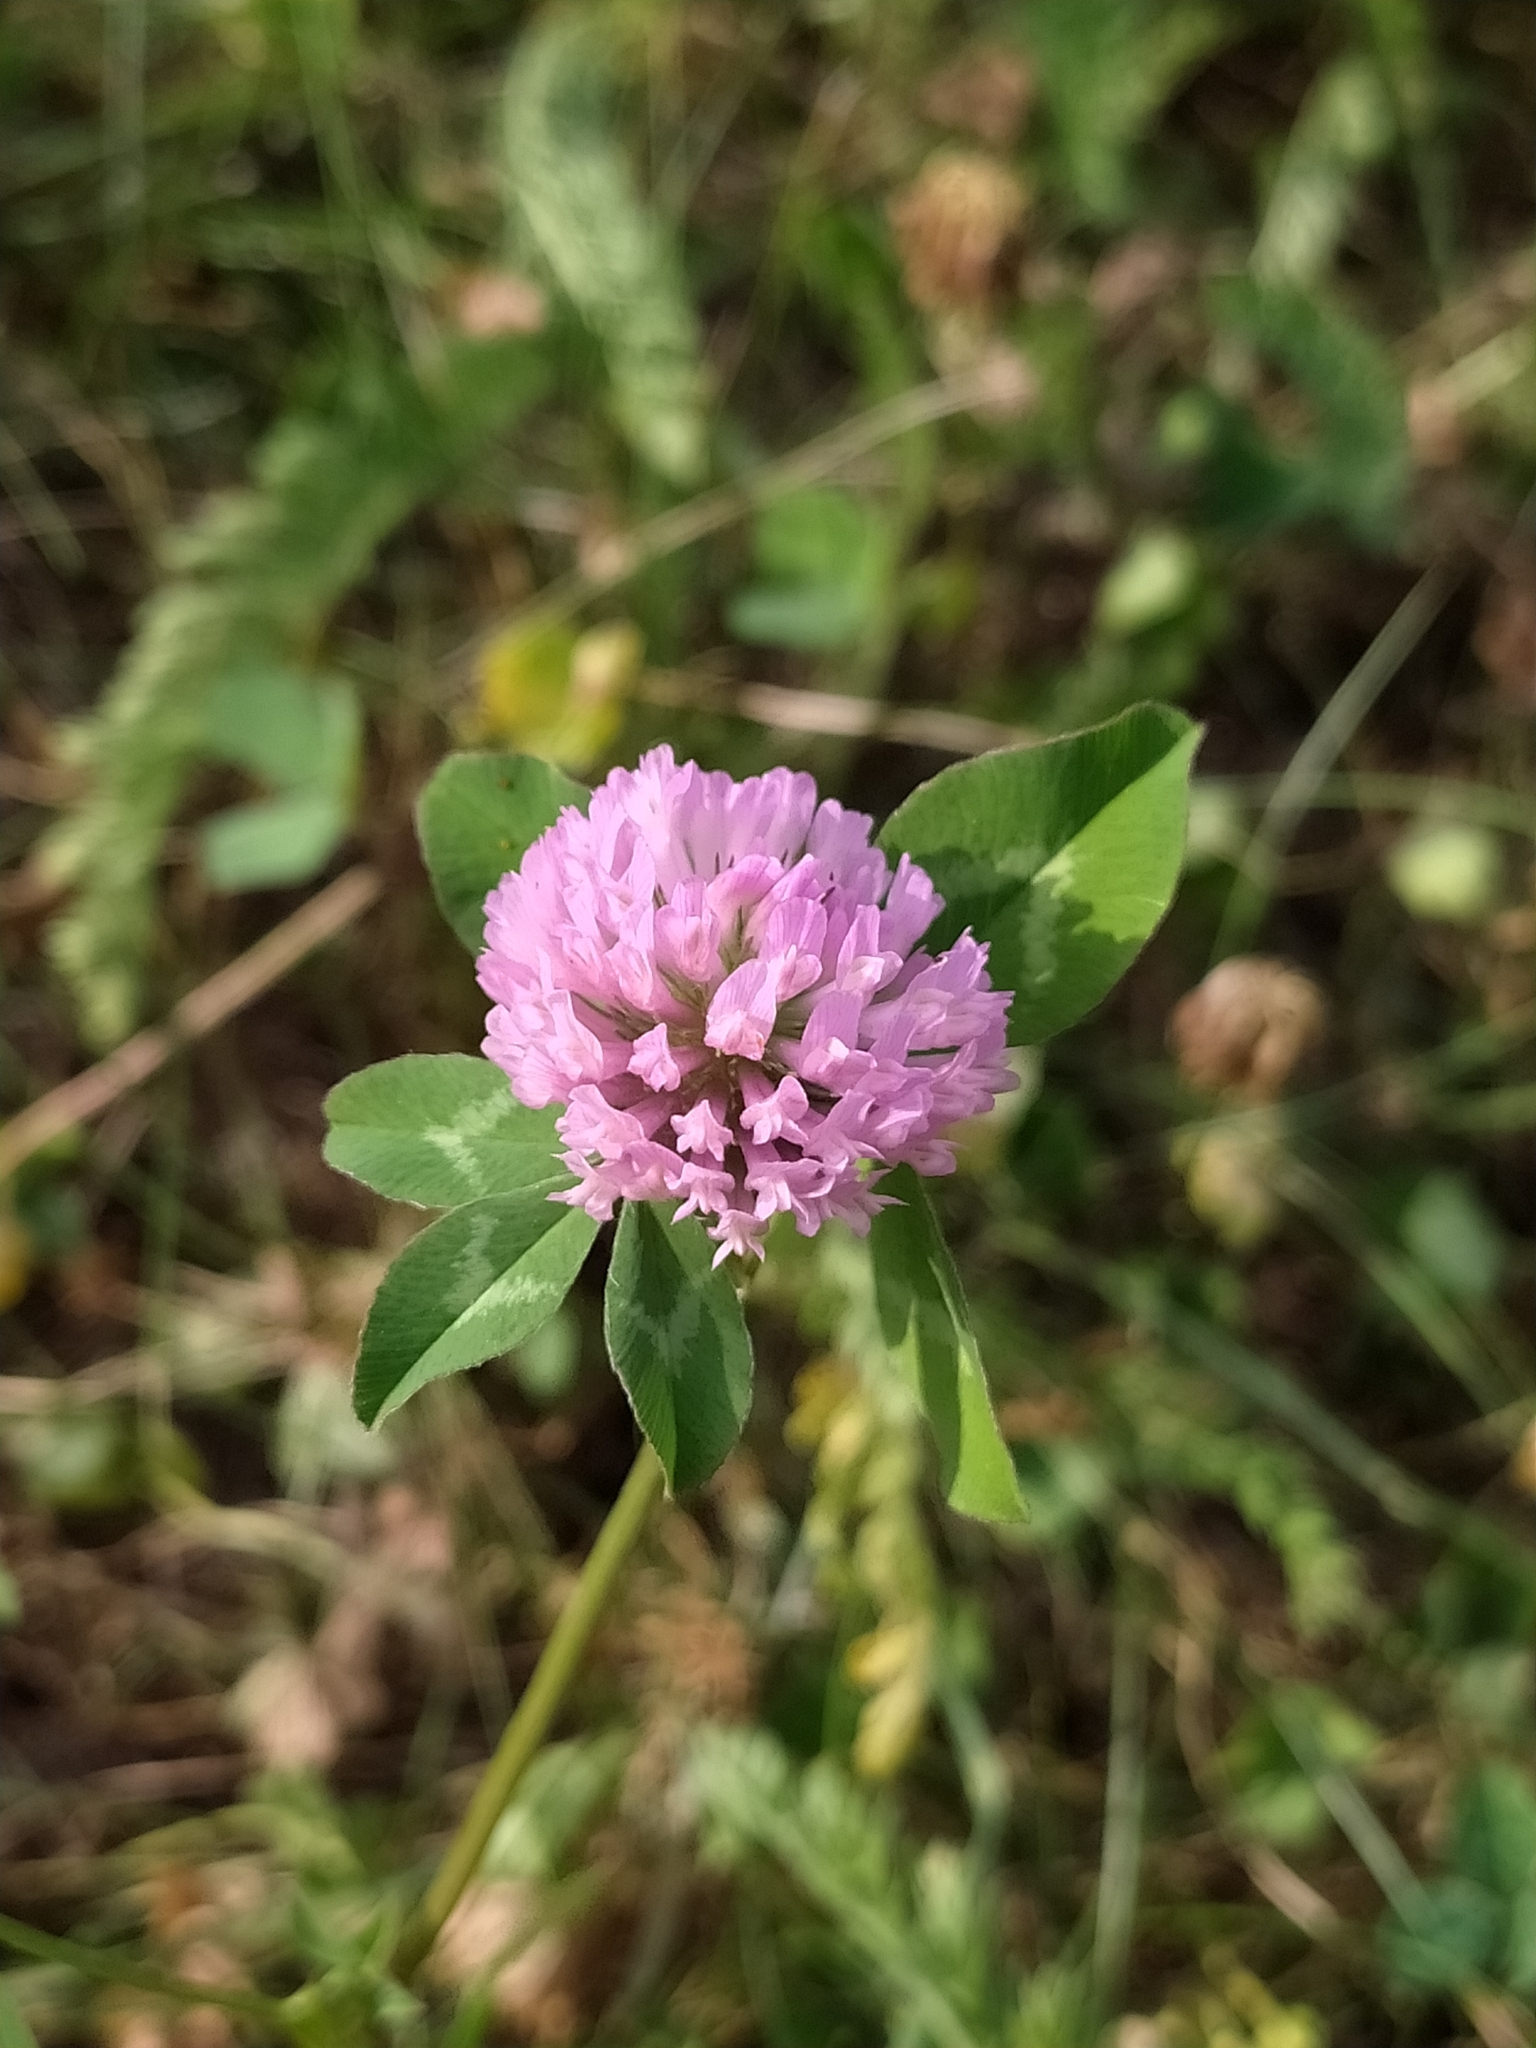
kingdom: Plantae
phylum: Tracheophyta
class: Magnoliopsida
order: Fabales
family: Fabaceae
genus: Trifolium
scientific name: Trifolium pratense
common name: Red clover
